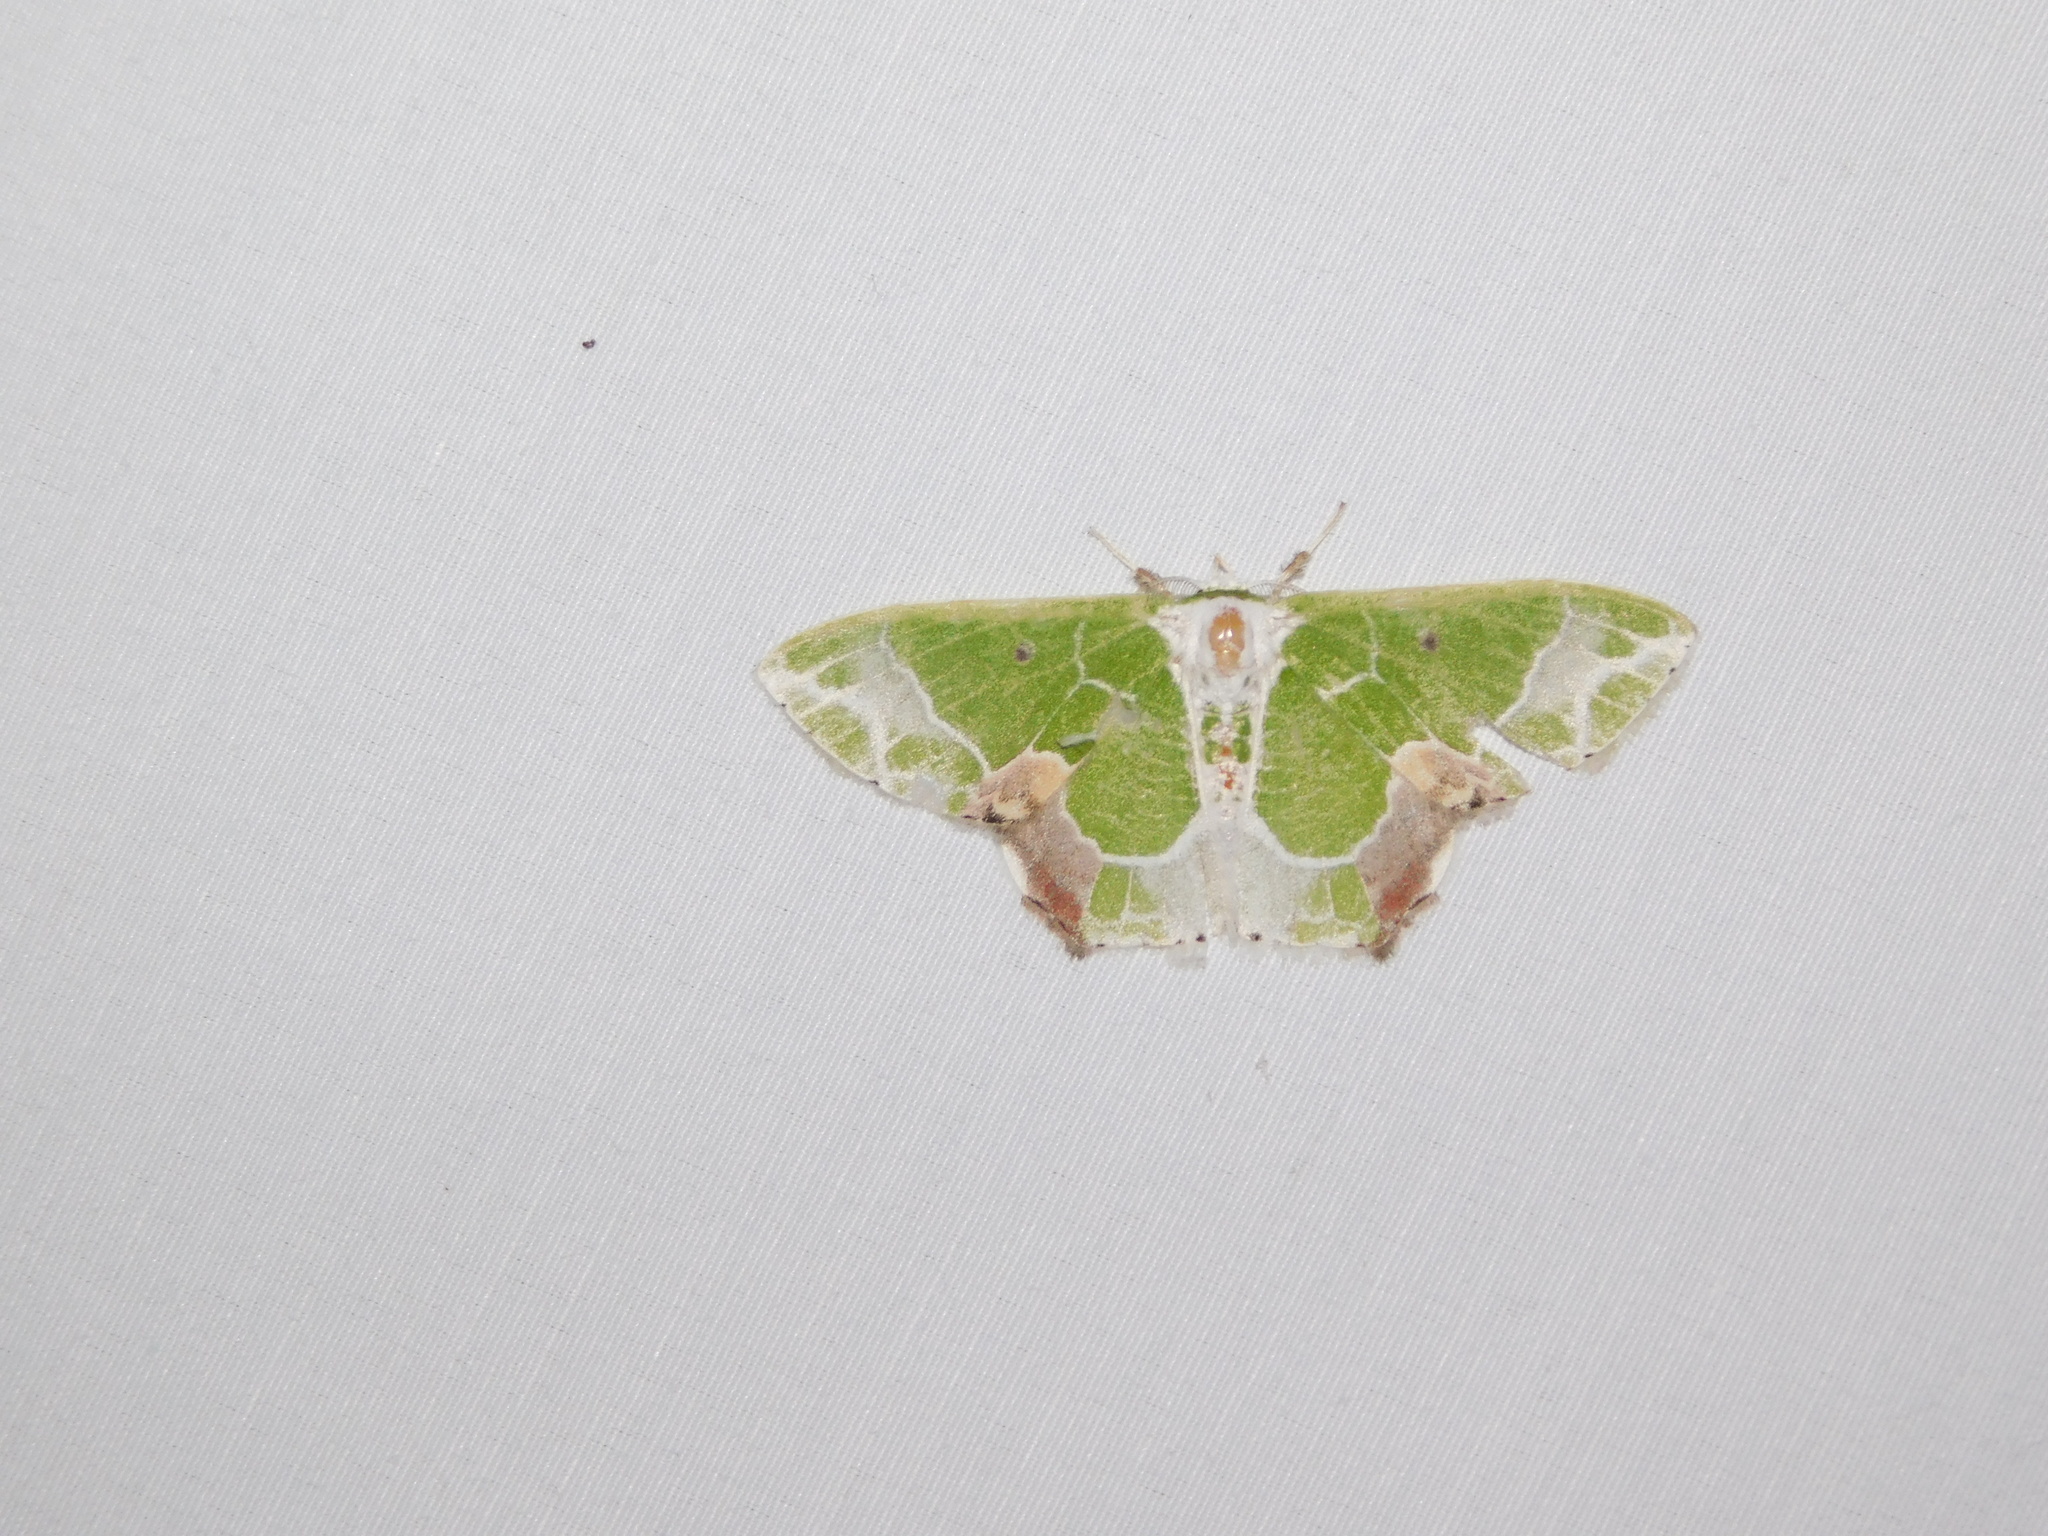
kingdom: Animalia
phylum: Arthropoda
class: Insecta
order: Lepidoptera
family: Geometridae
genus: Protuliocnemis
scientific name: Protuliocnemis partita
